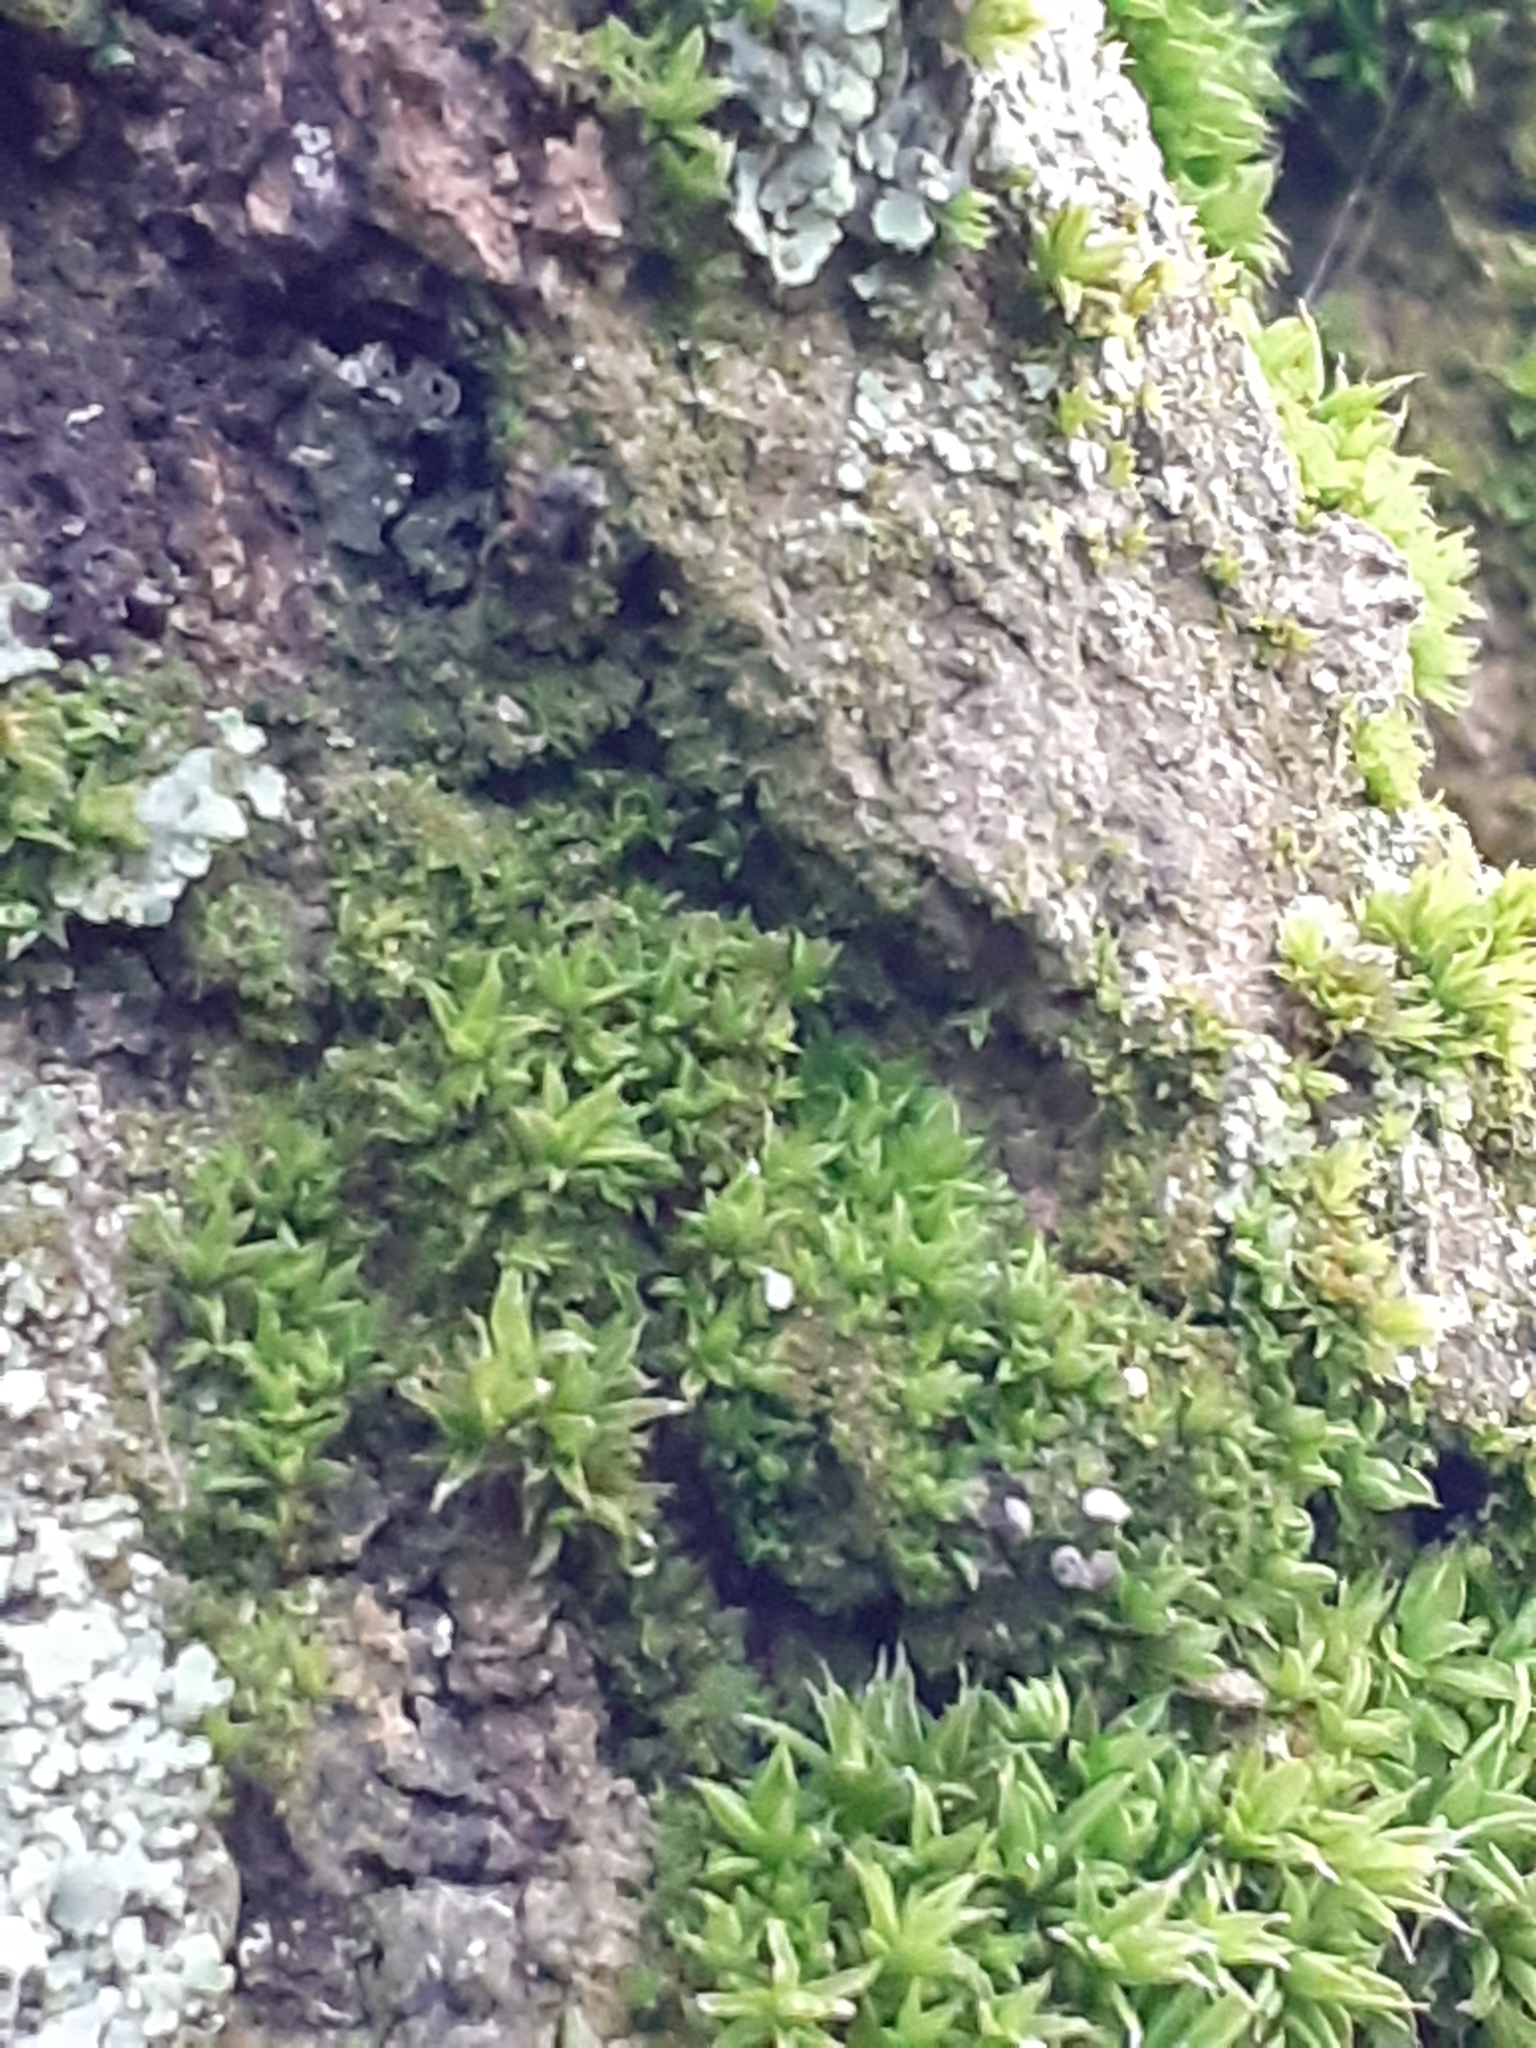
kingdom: Plantae
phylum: Bryophyta
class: Bryopsida
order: Orthotrichales
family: Orthotrichaceae
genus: Orthotrichum
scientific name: Orthotrichum diaphanum
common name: White-tipped bristle-moss
